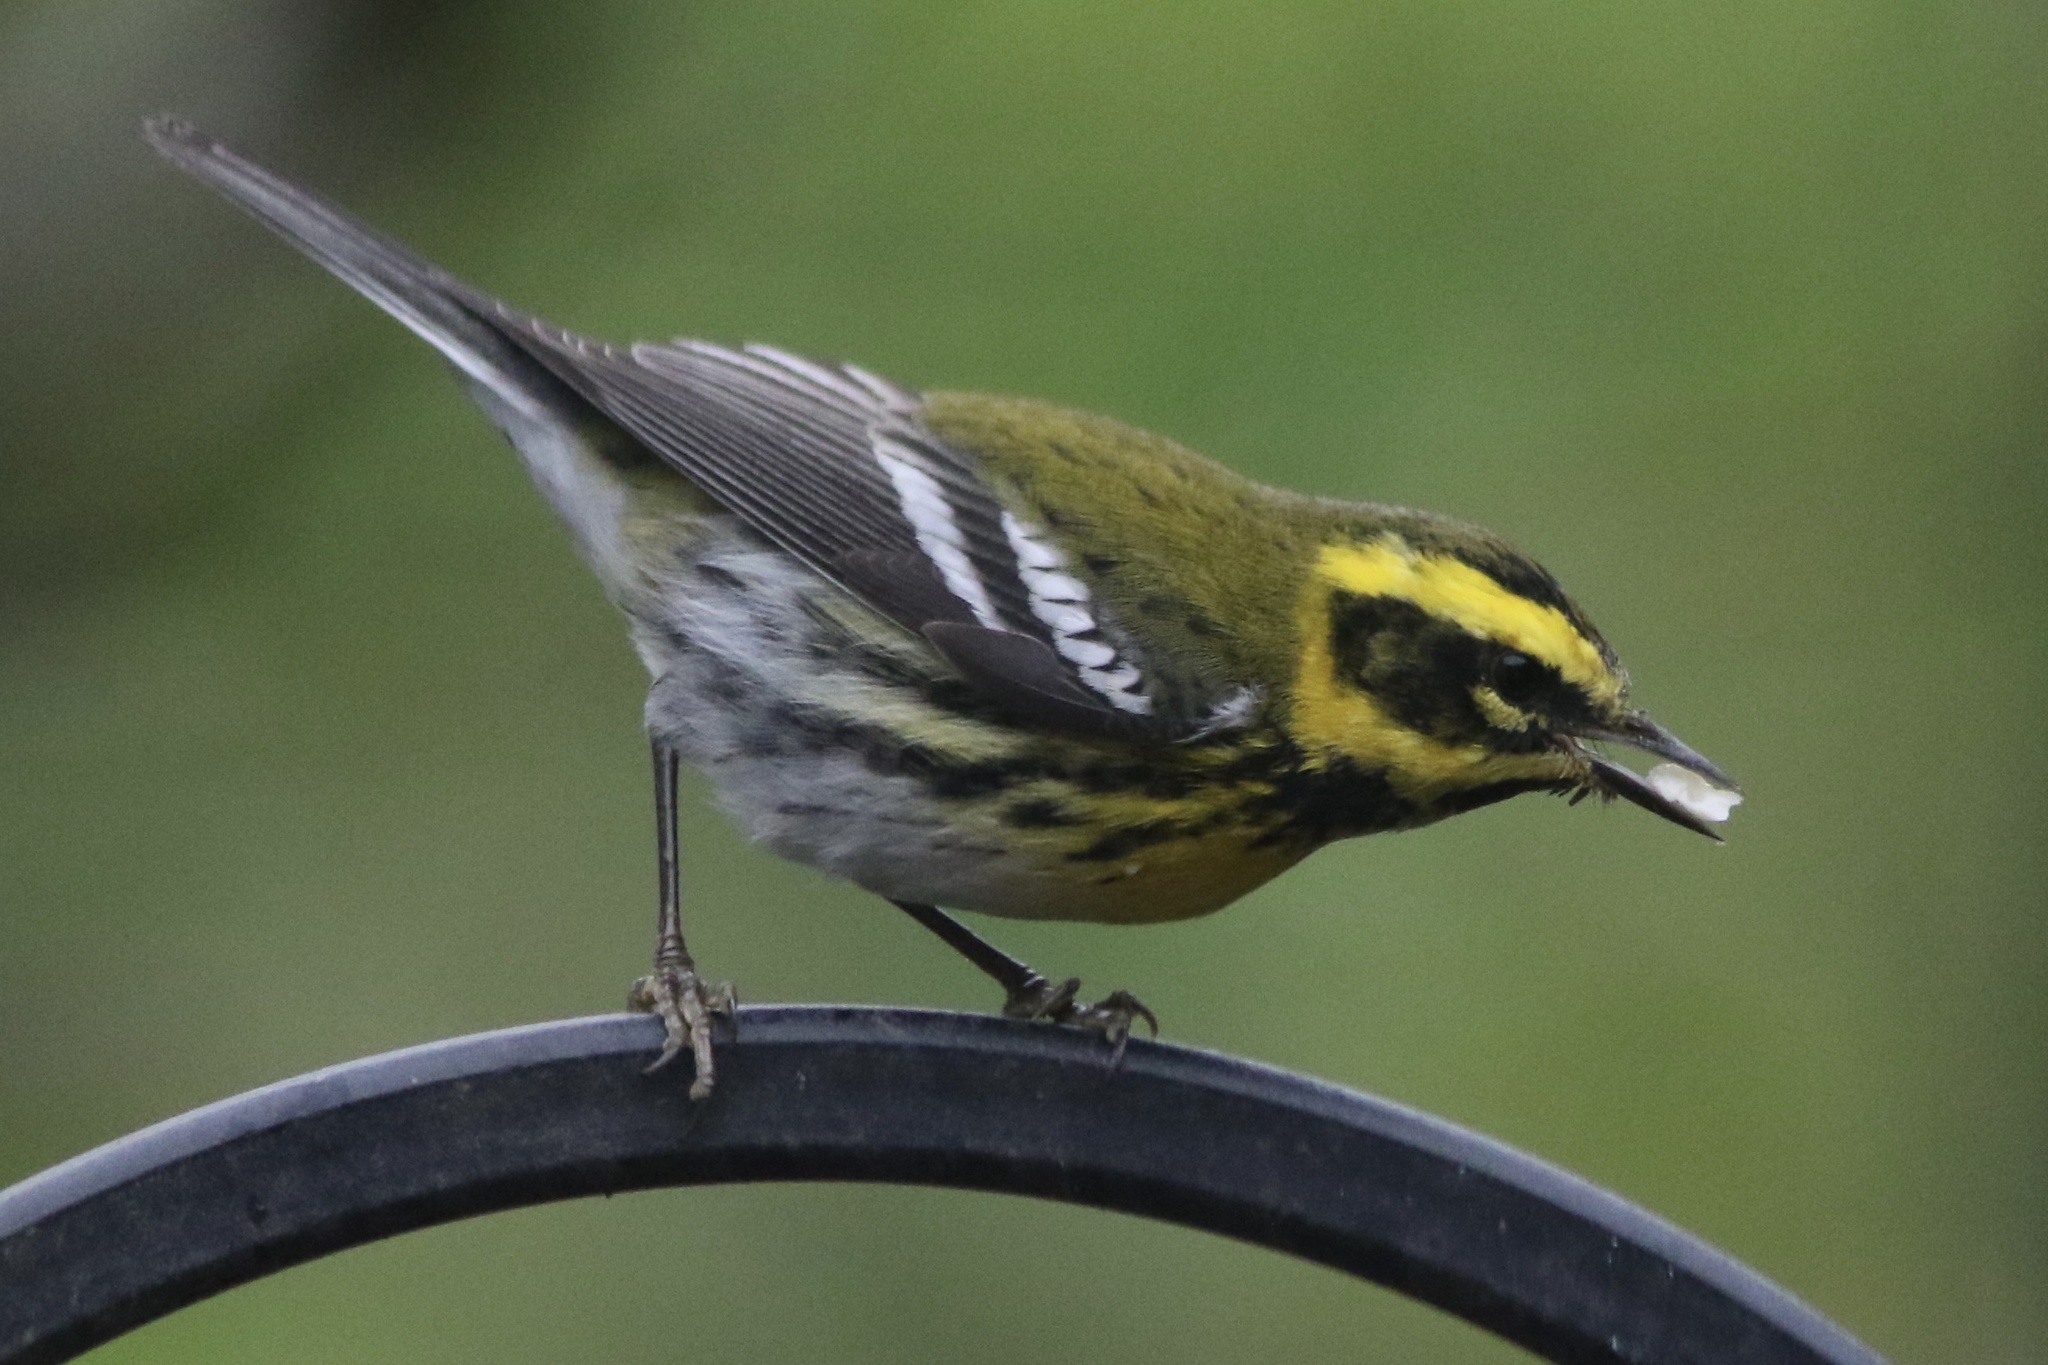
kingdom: Animalia
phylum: Chordata
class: Aves
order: Passeriformes
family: Parulidae
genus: Setophaga
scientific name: Setophaga townsendi
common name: Townsend's warbler
